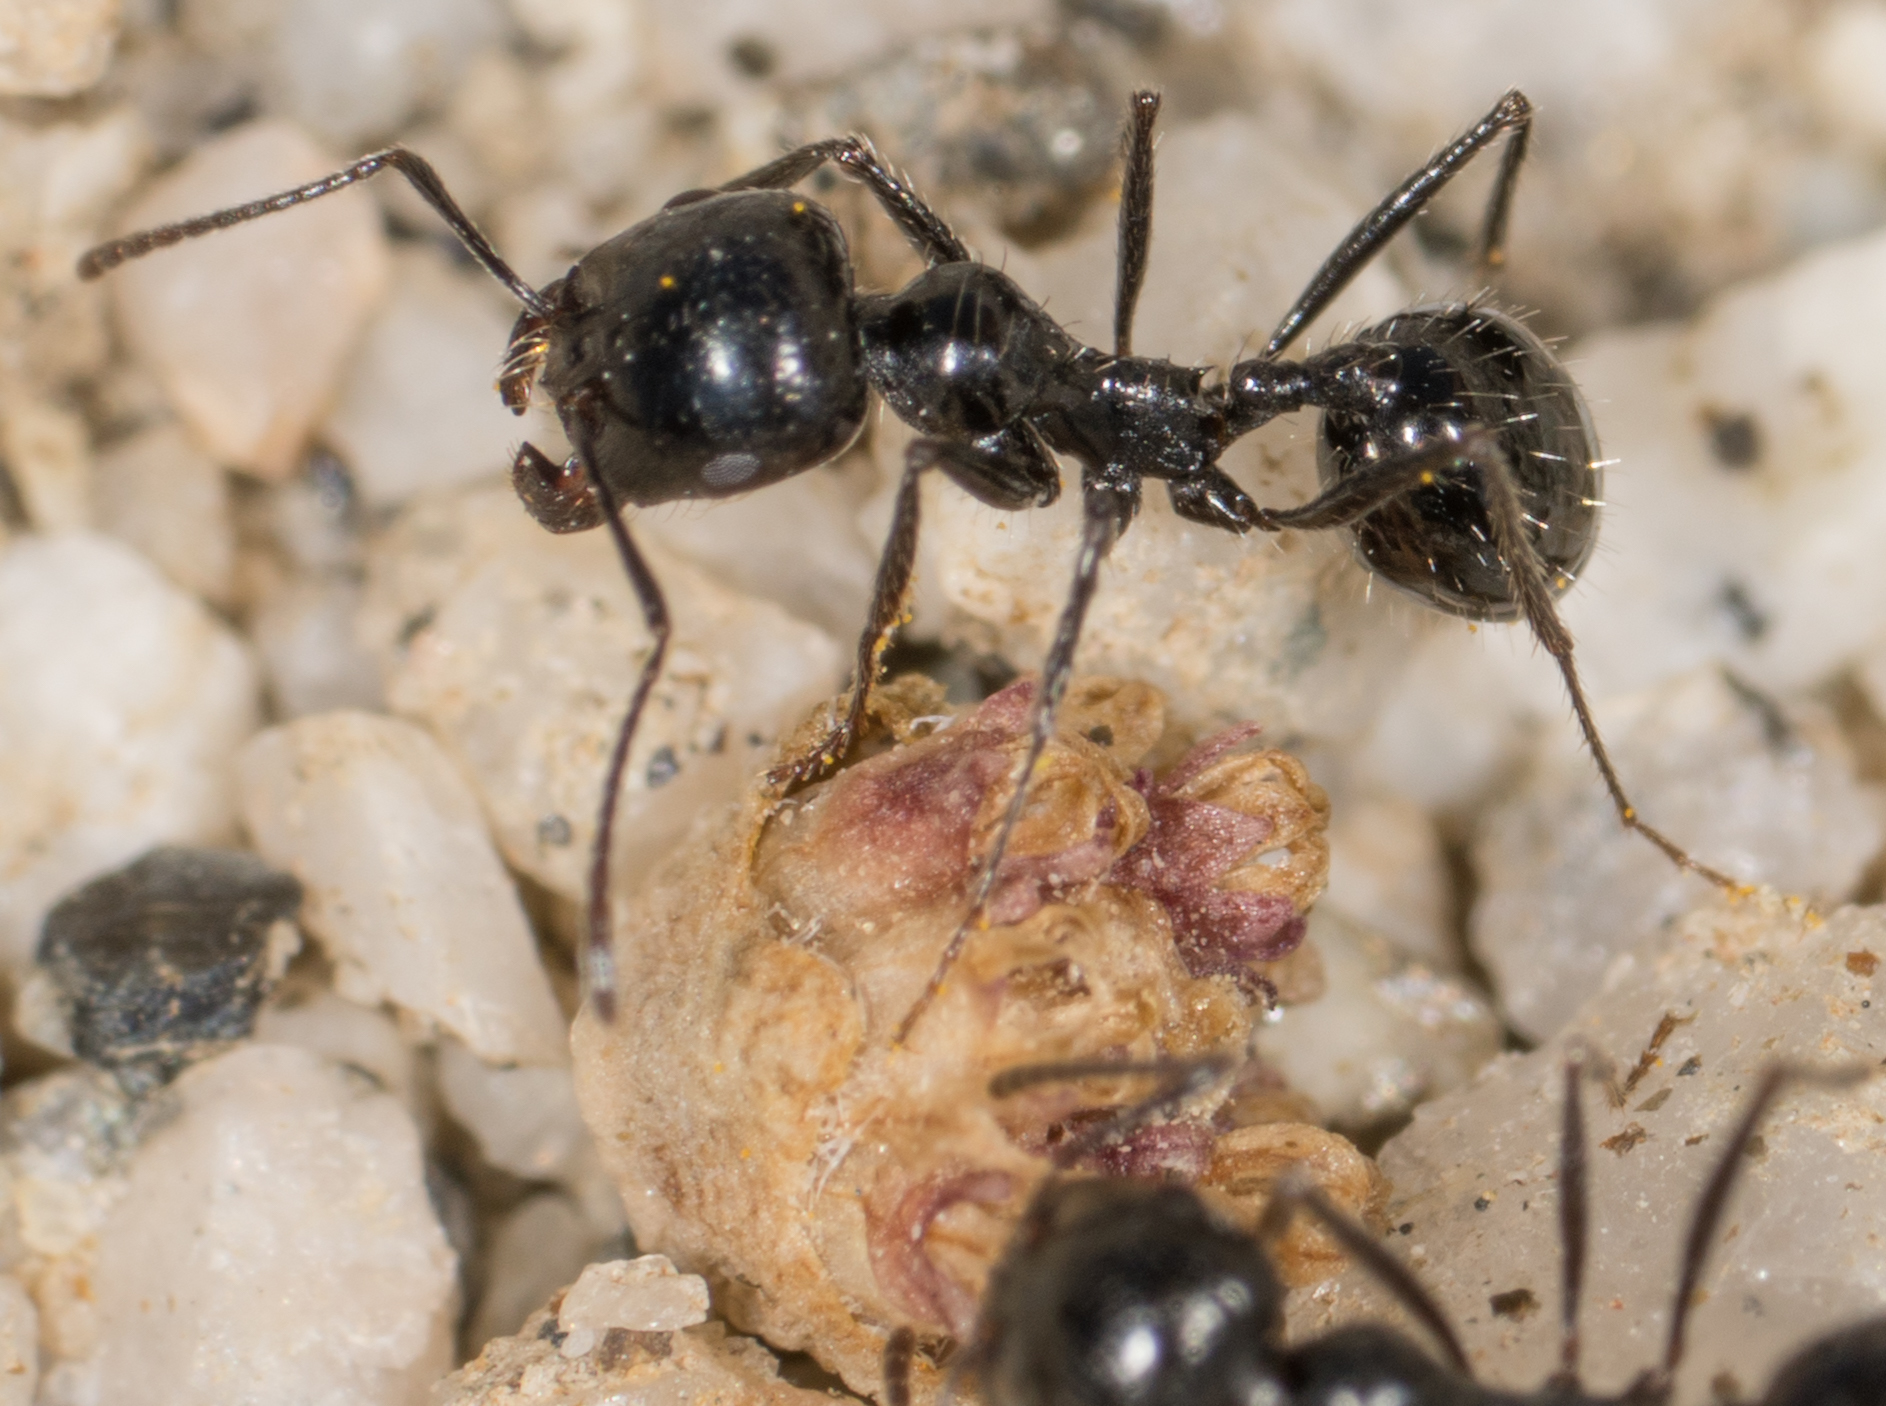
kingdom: Animalia
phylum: Arthropoda
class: Insecta
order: Hymenoptera
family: Formicidae
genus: Messor
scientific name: Messor pergandei
